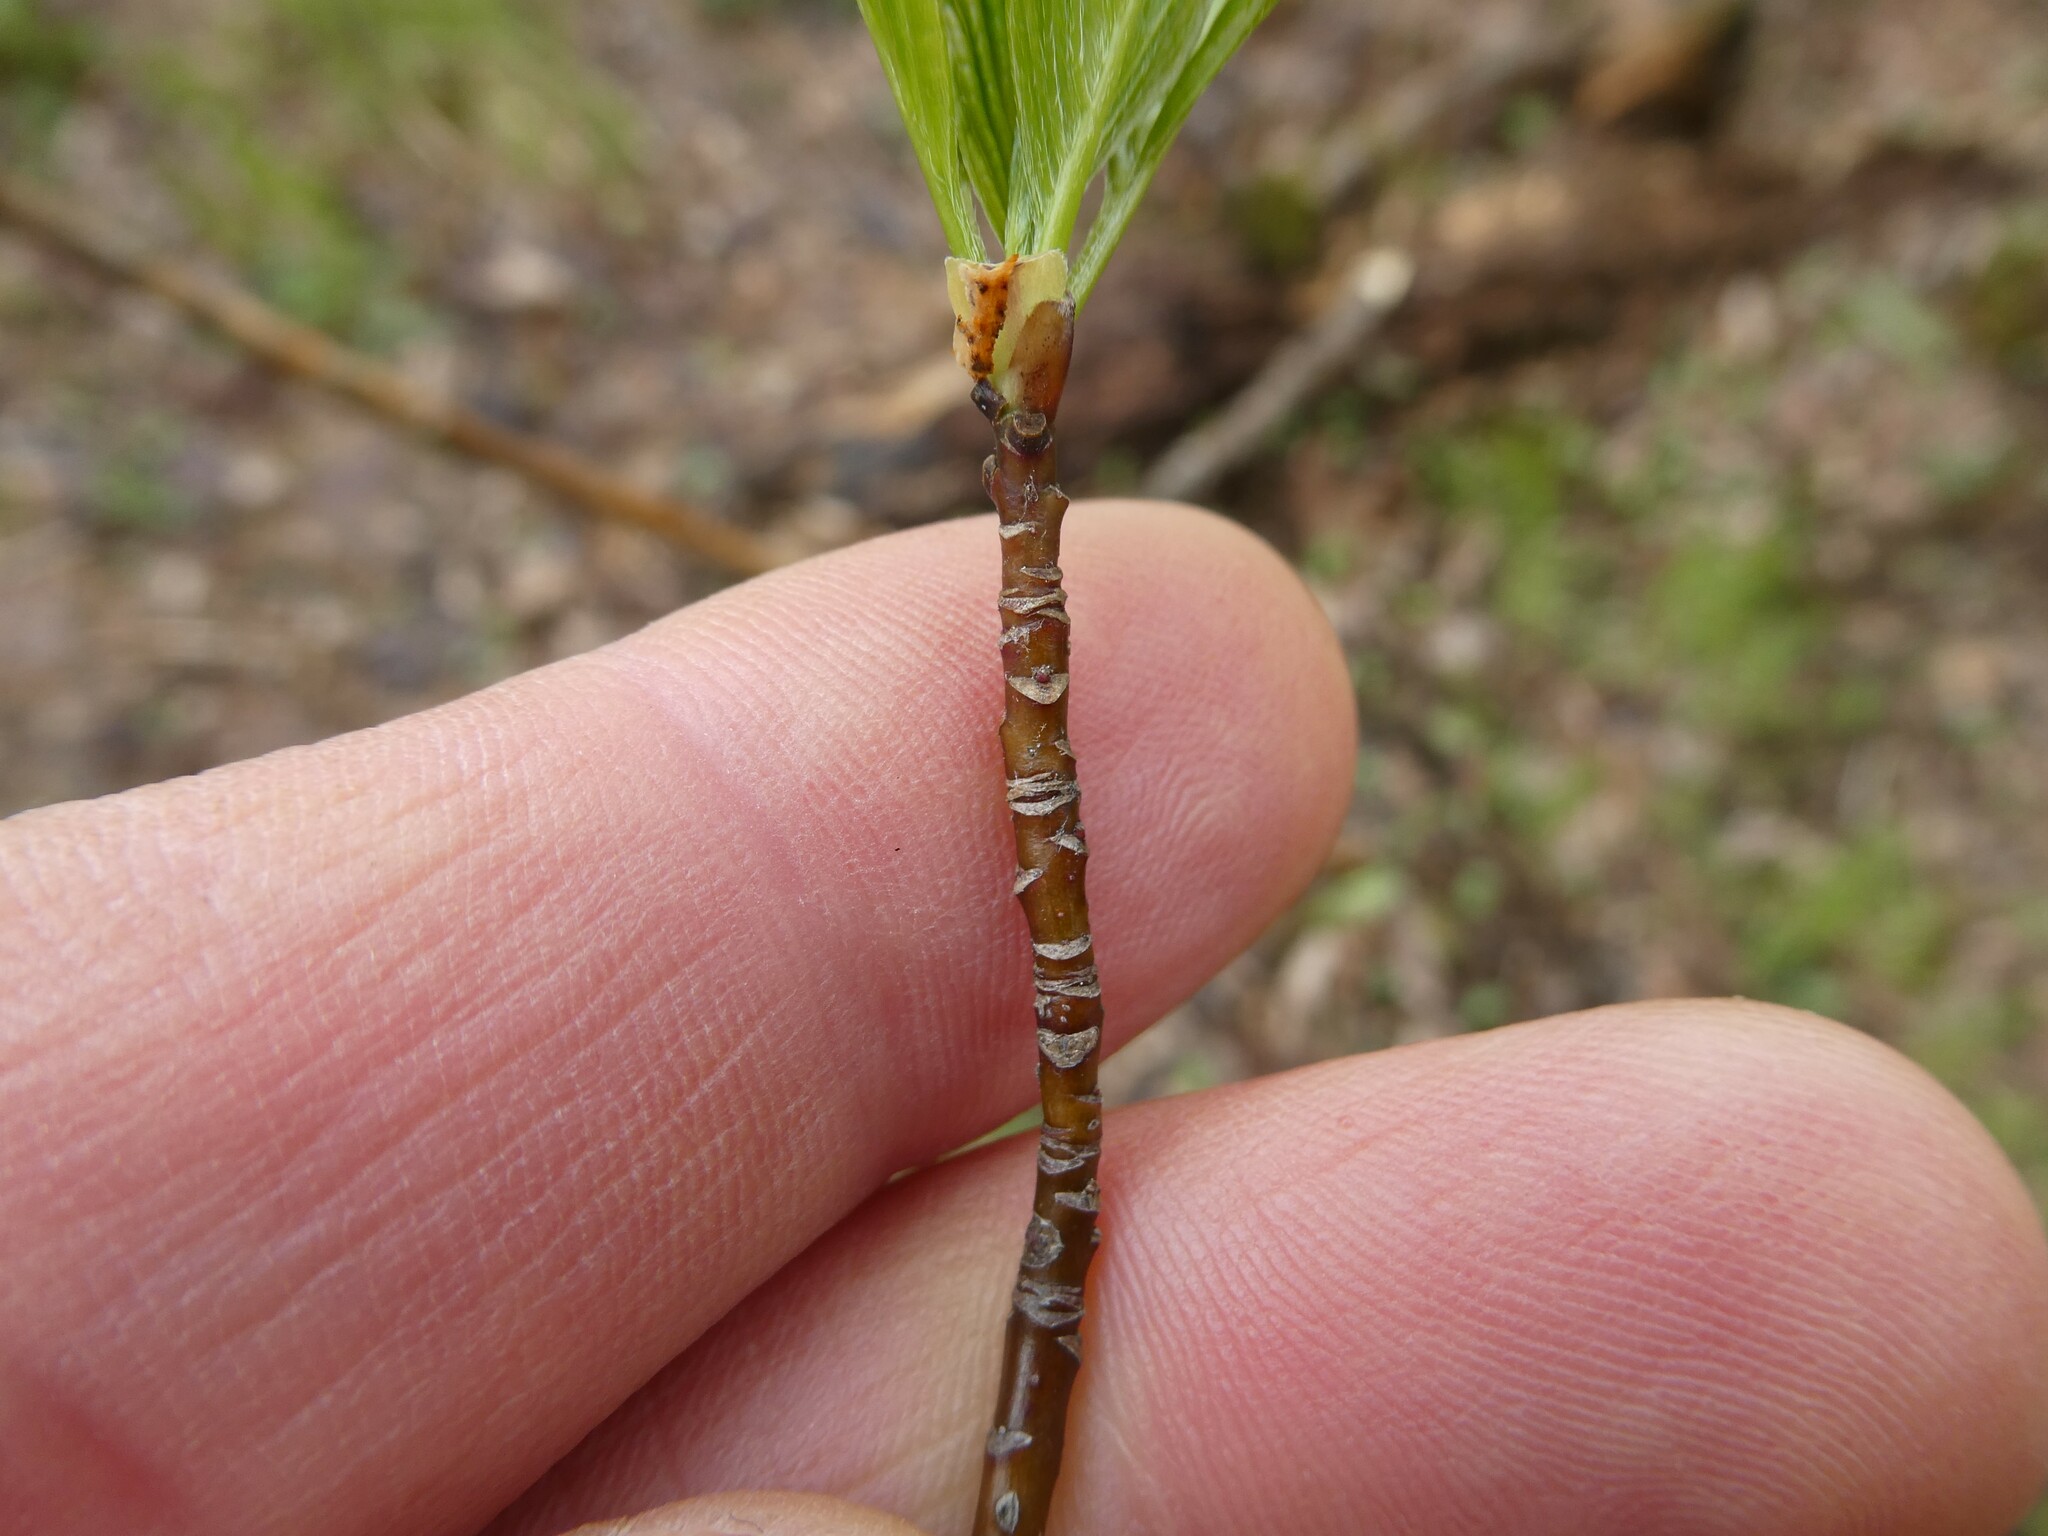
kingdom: Fungi
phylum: Ascomycota
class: Sordariomycetes
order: Diaporthales
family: Cryphonectriaceae
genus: Aurantioporthe
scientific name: Aurantioporthe corni
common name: Dogwood golden canker
